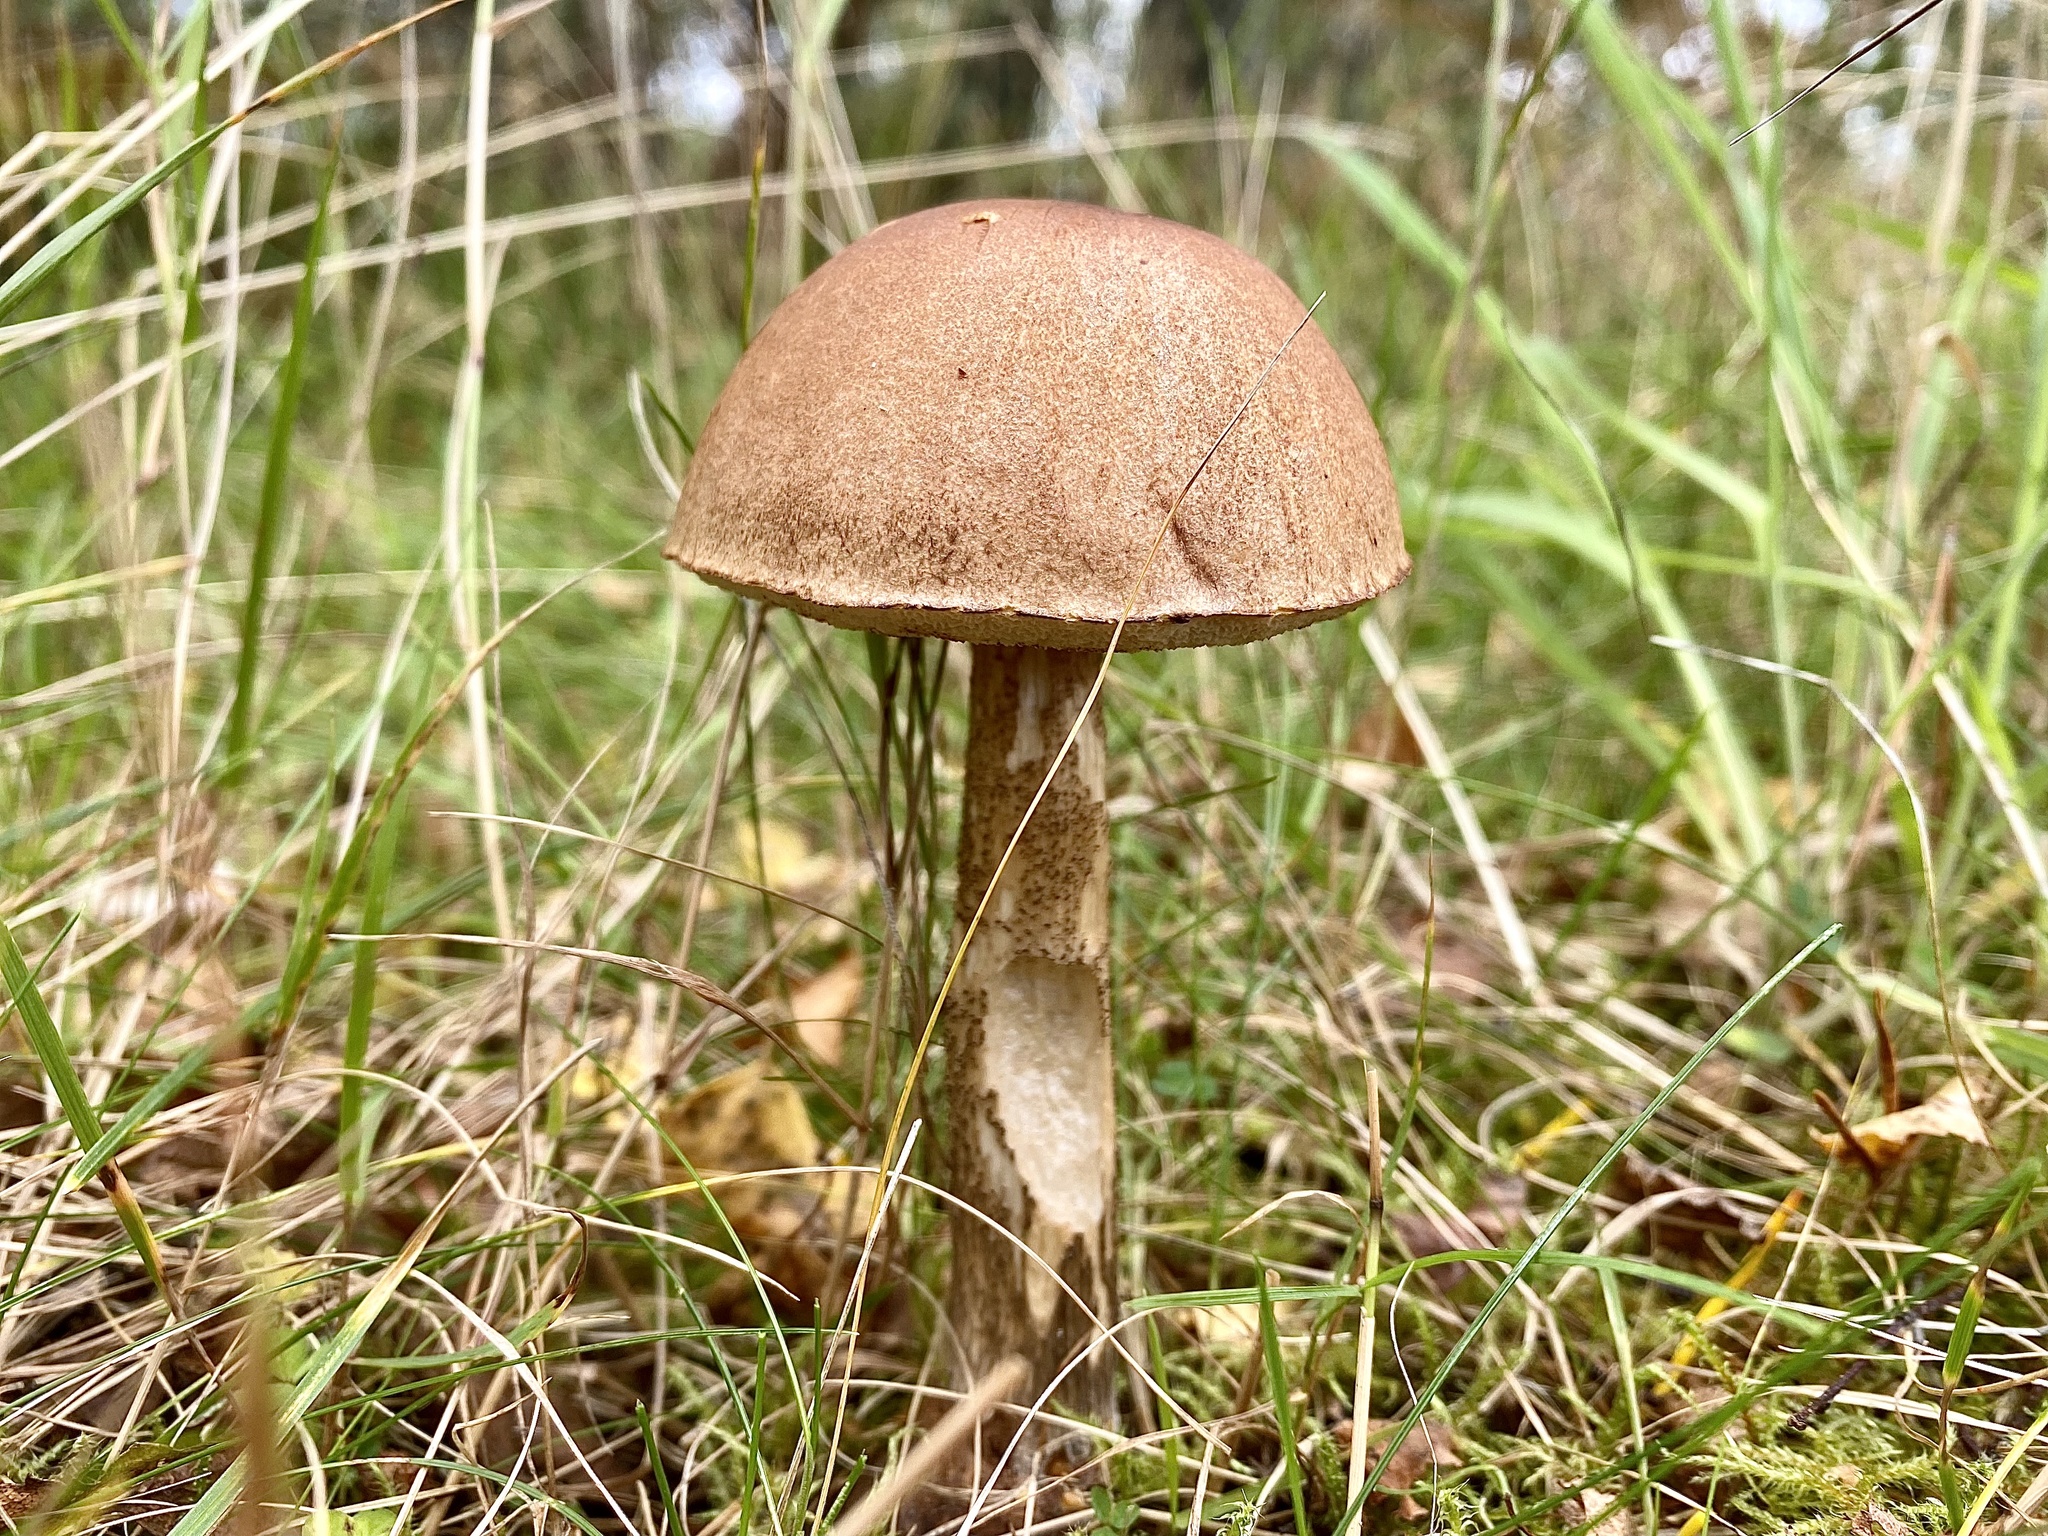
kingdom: Fungi
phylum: Basidiomycota
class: Agaricomycetes
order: Boletales
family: Boletaceae
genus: Leccinum
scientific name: Leccinum scabrum
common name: Blushing bolete
